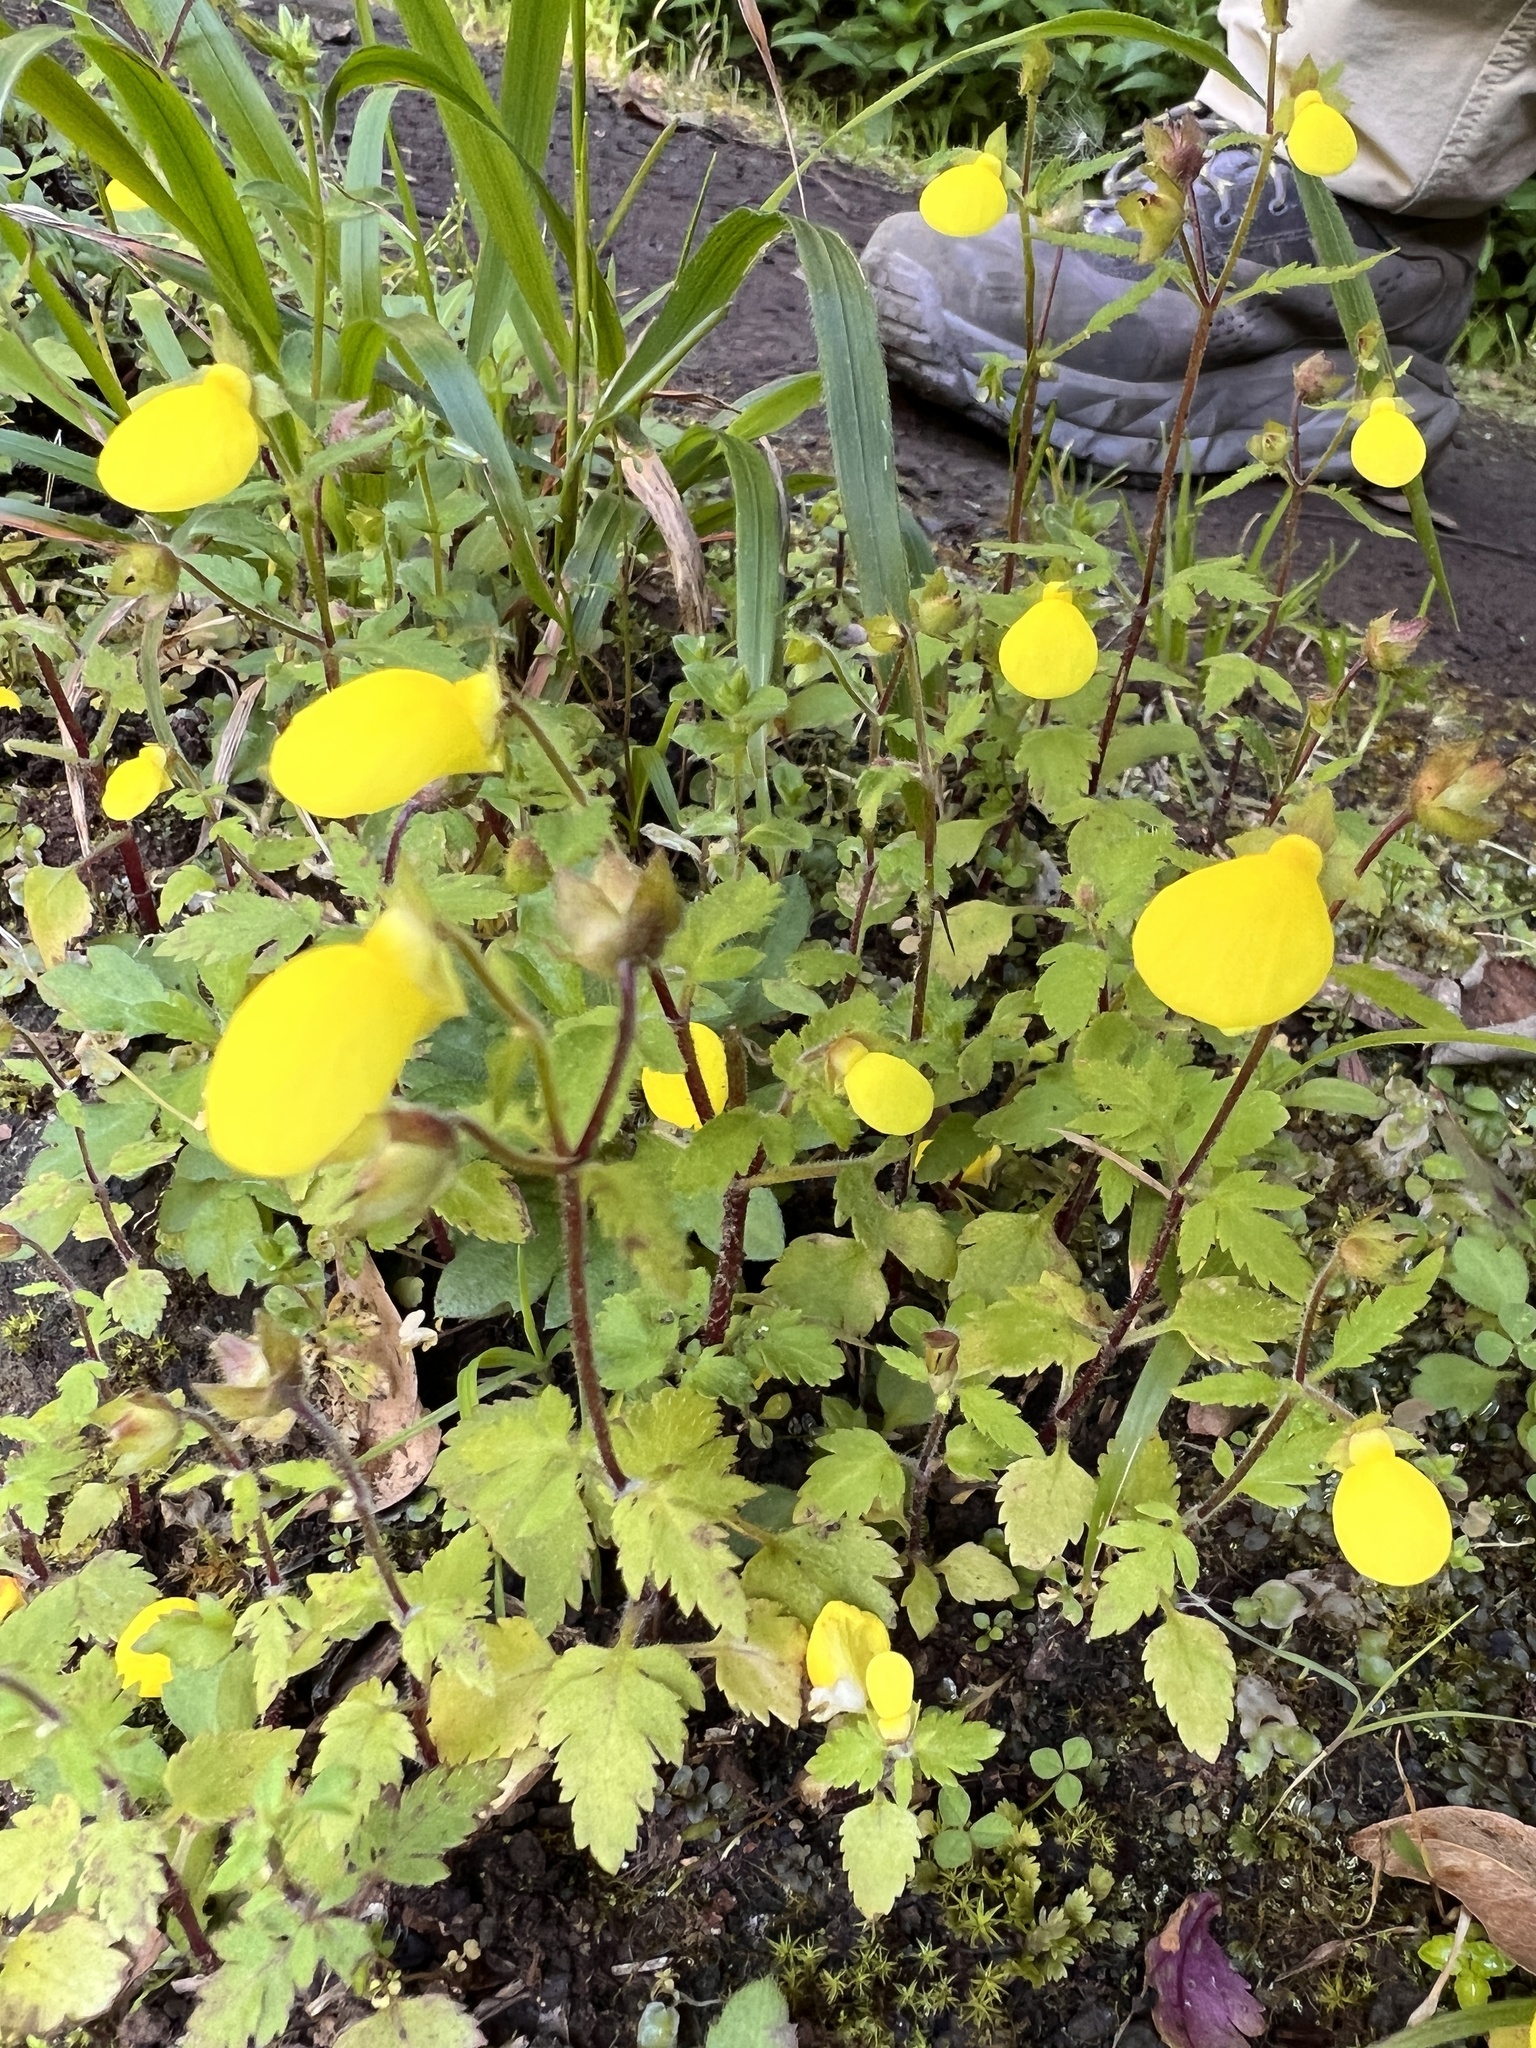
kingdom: Plantae
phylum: Tracheophyta
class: Magnoliopsida
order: Lamiales
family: Calceolariaceae
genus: Calceolaria
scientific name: Calceolaria tripartita
